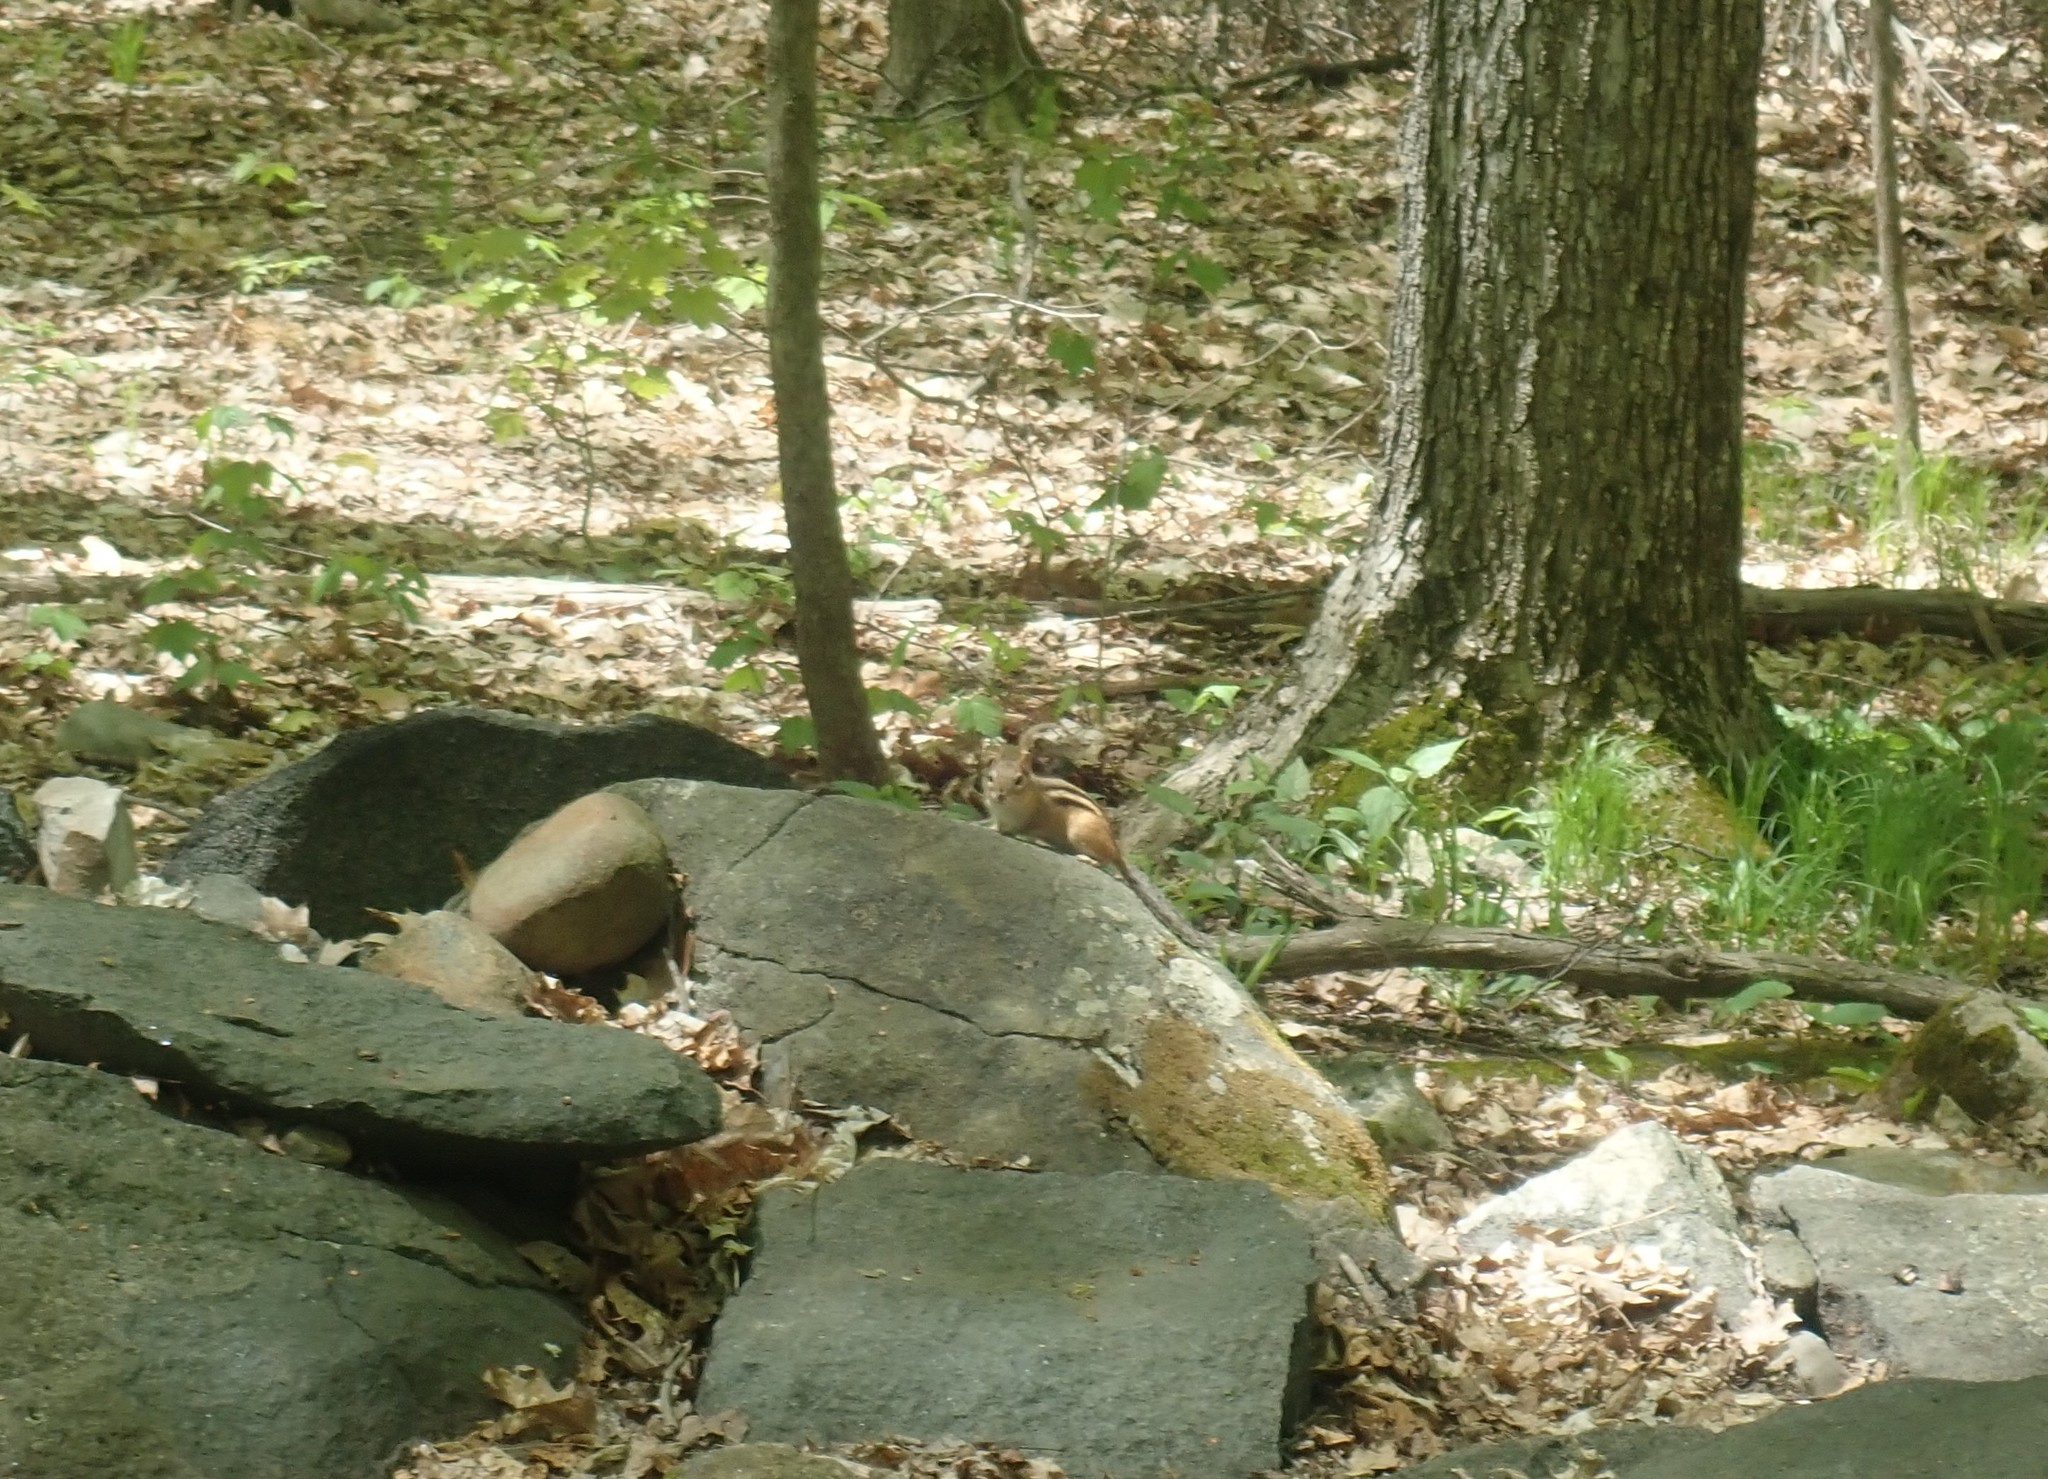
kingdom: Animalia
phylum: Chordata
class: Mammalia
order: Rodentia
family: Sciuridae
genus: Tamias
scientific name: Tamias striatus
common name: Eastern chipmunk
